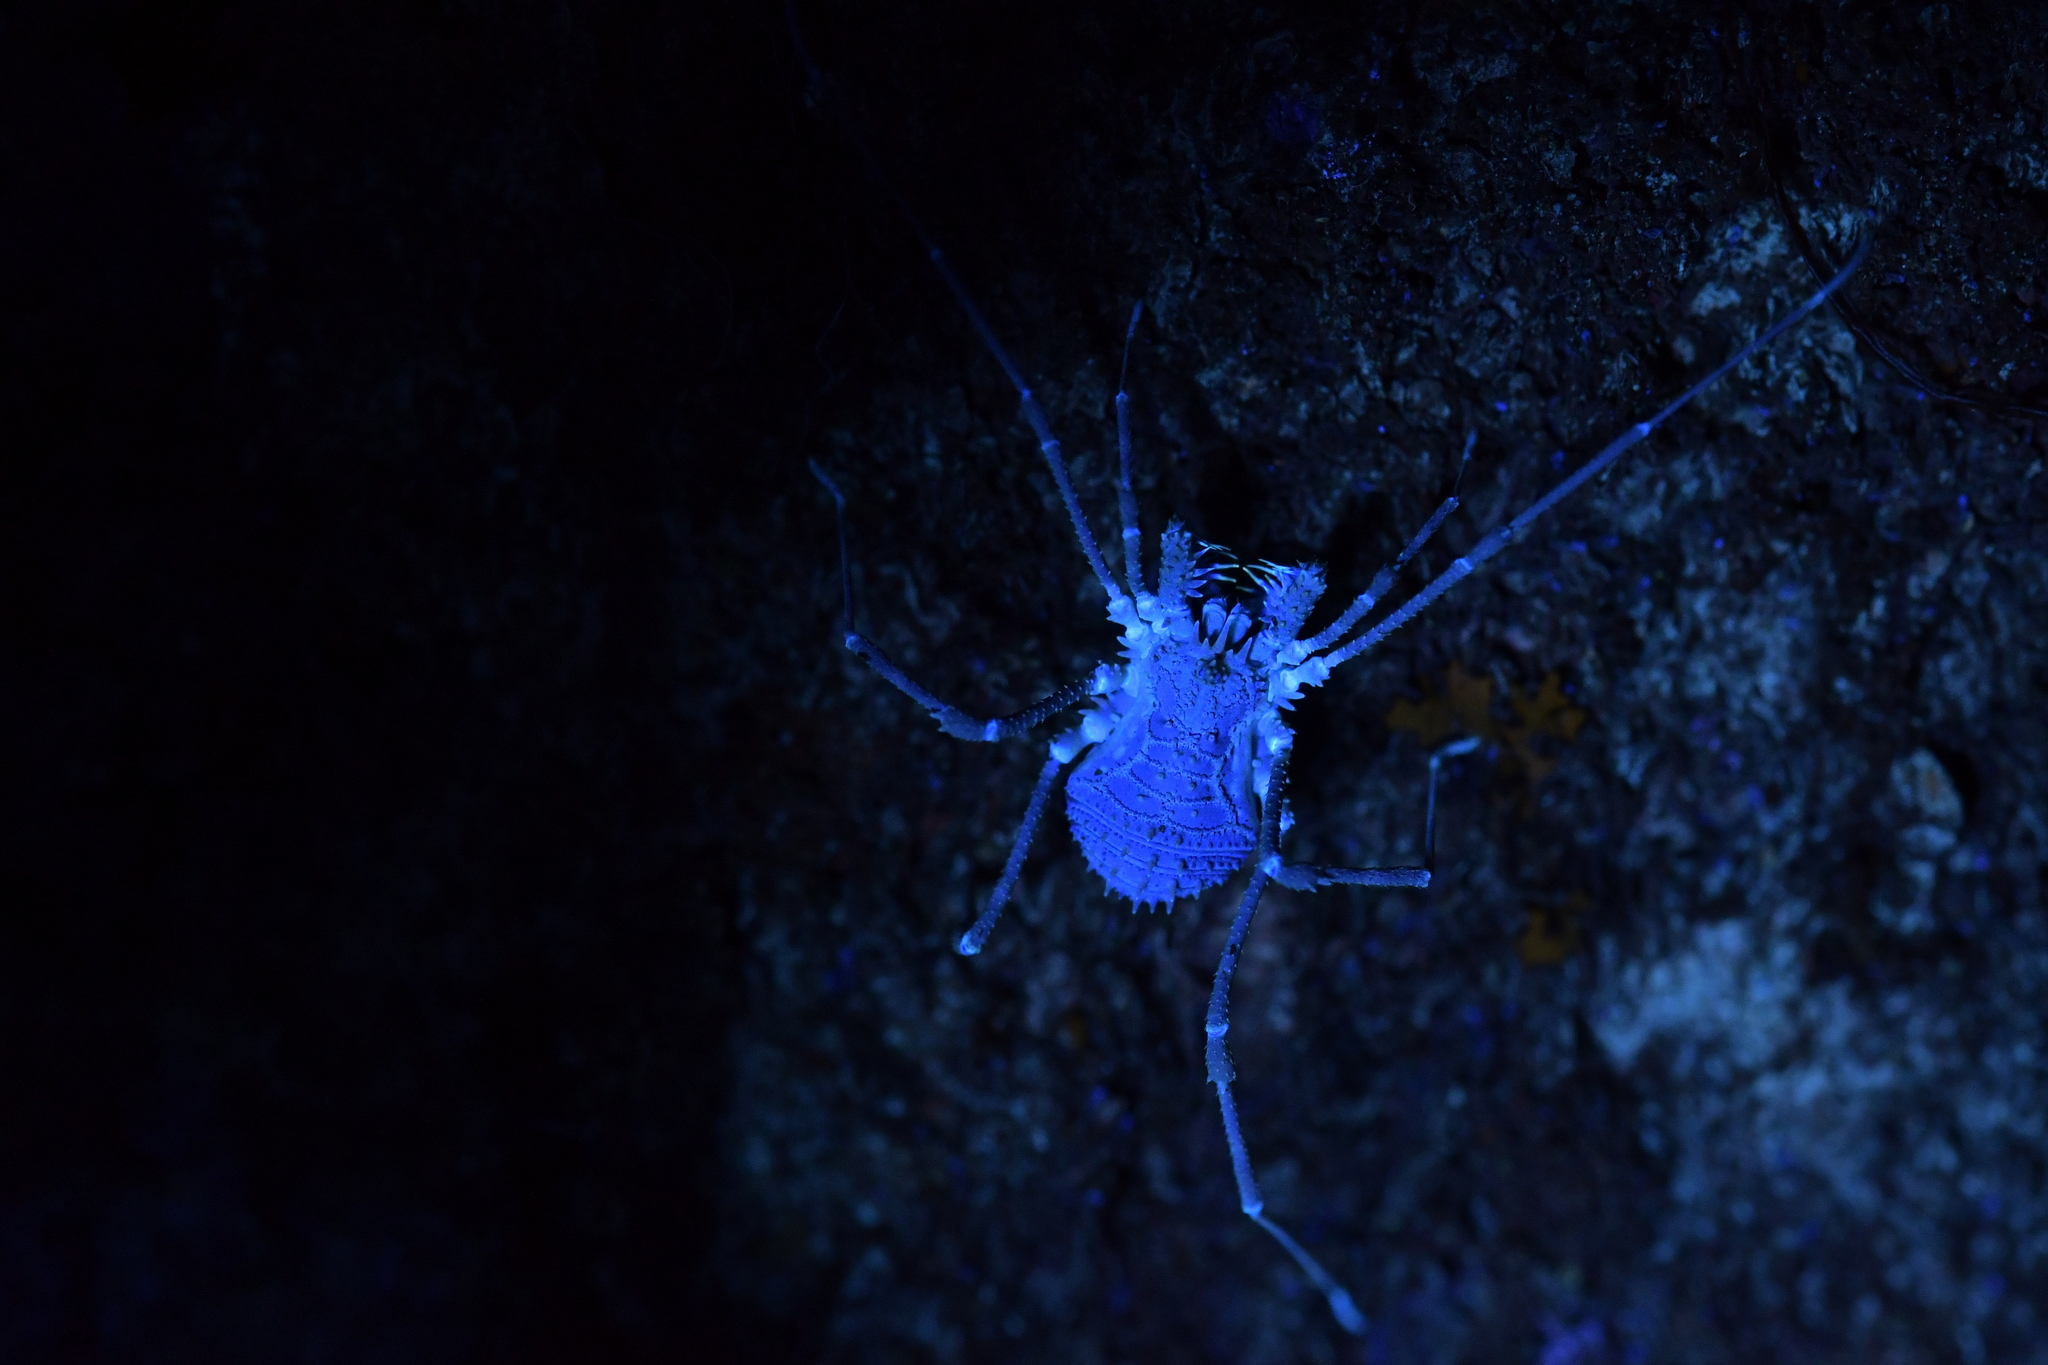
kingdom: Animalia
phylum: Arthropoda
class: Arachnida
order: Opiliones
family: Triaenonychidae
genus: Algidia
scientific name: Algidia nigriflava
